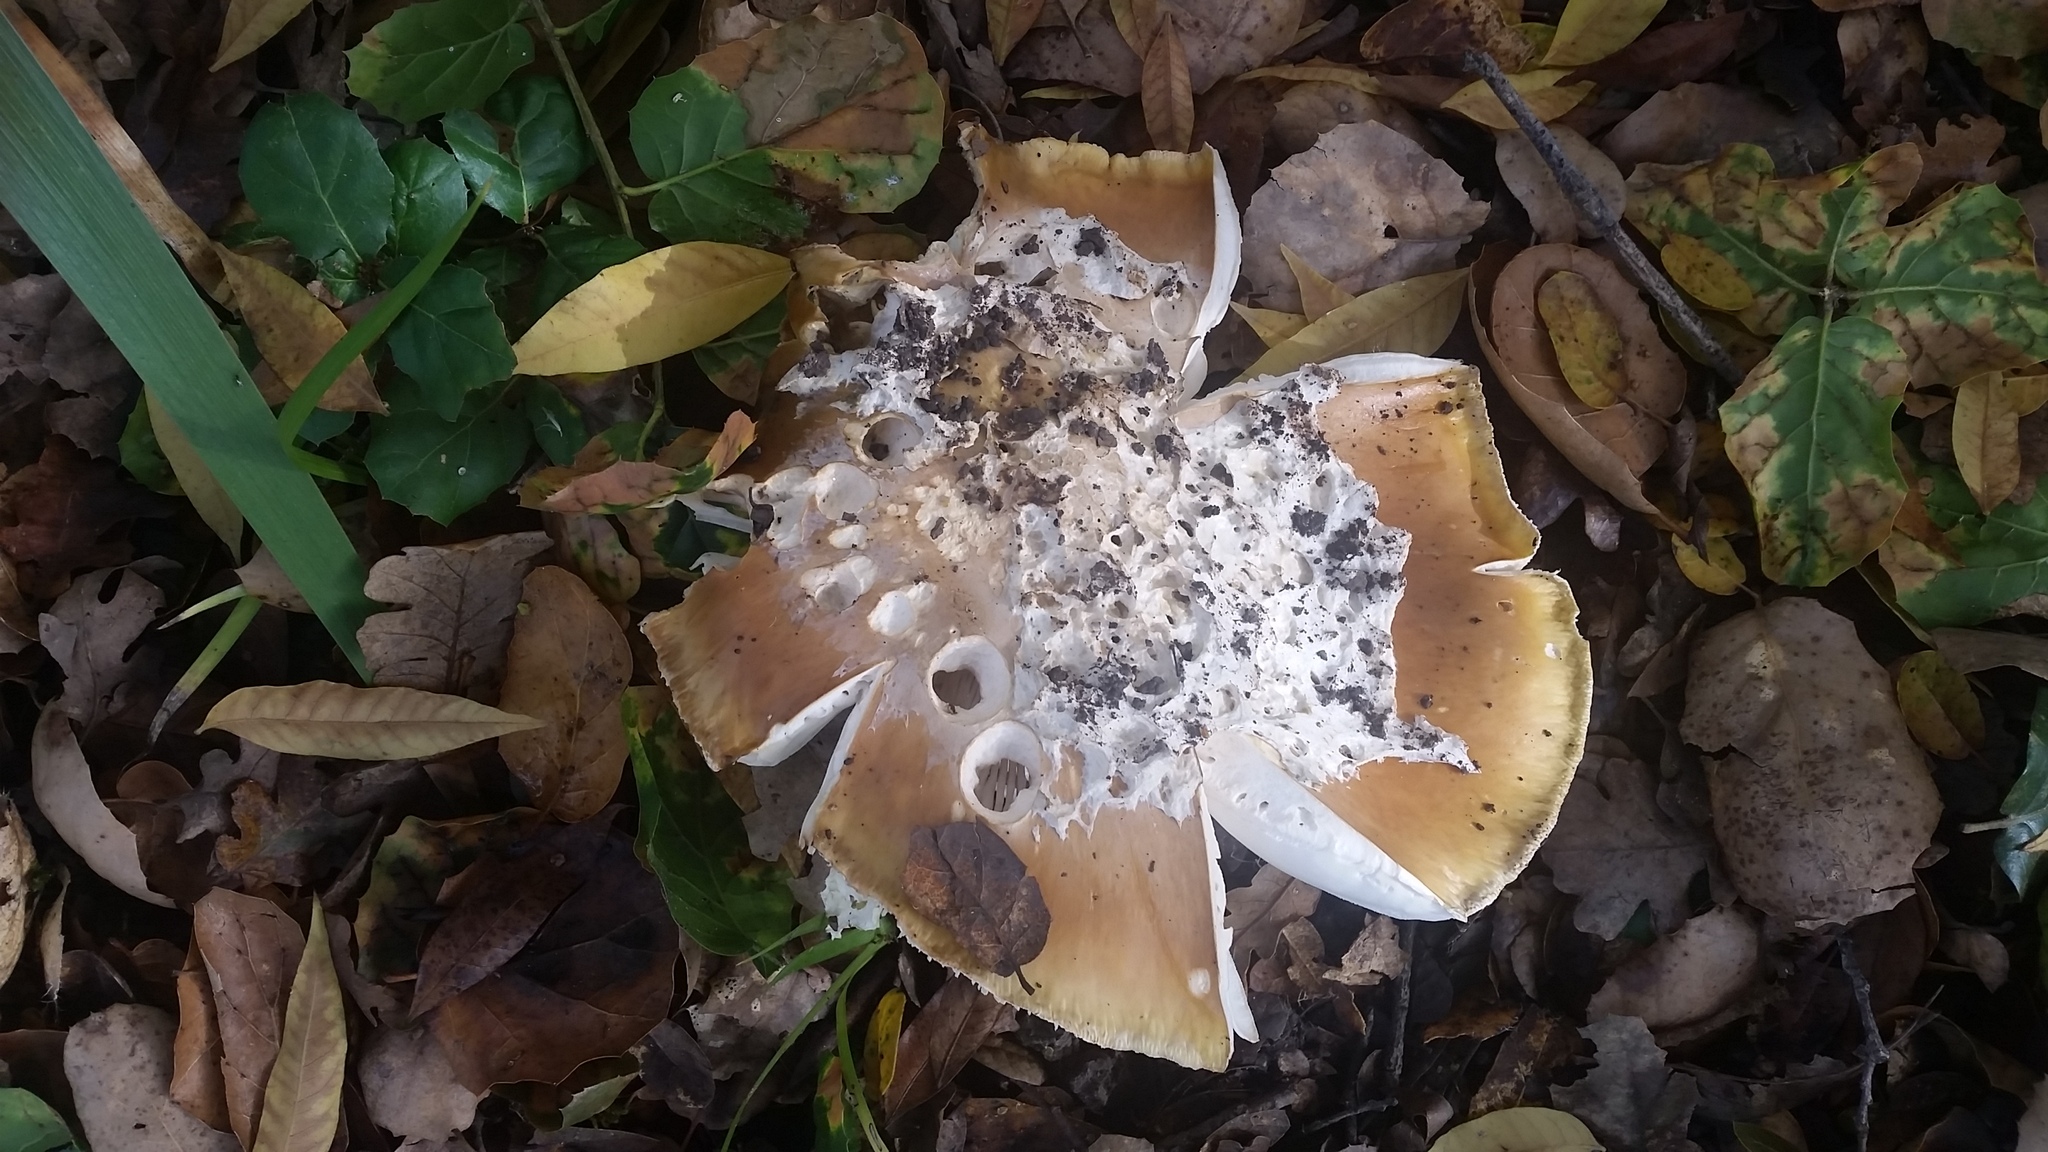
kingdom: Fungi
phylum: Basidiomycota
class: Agaricomycetes
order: Agaricales
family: Amanitaceae
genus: Amanita
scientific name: Amanita calyptroderma
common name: Coccora
